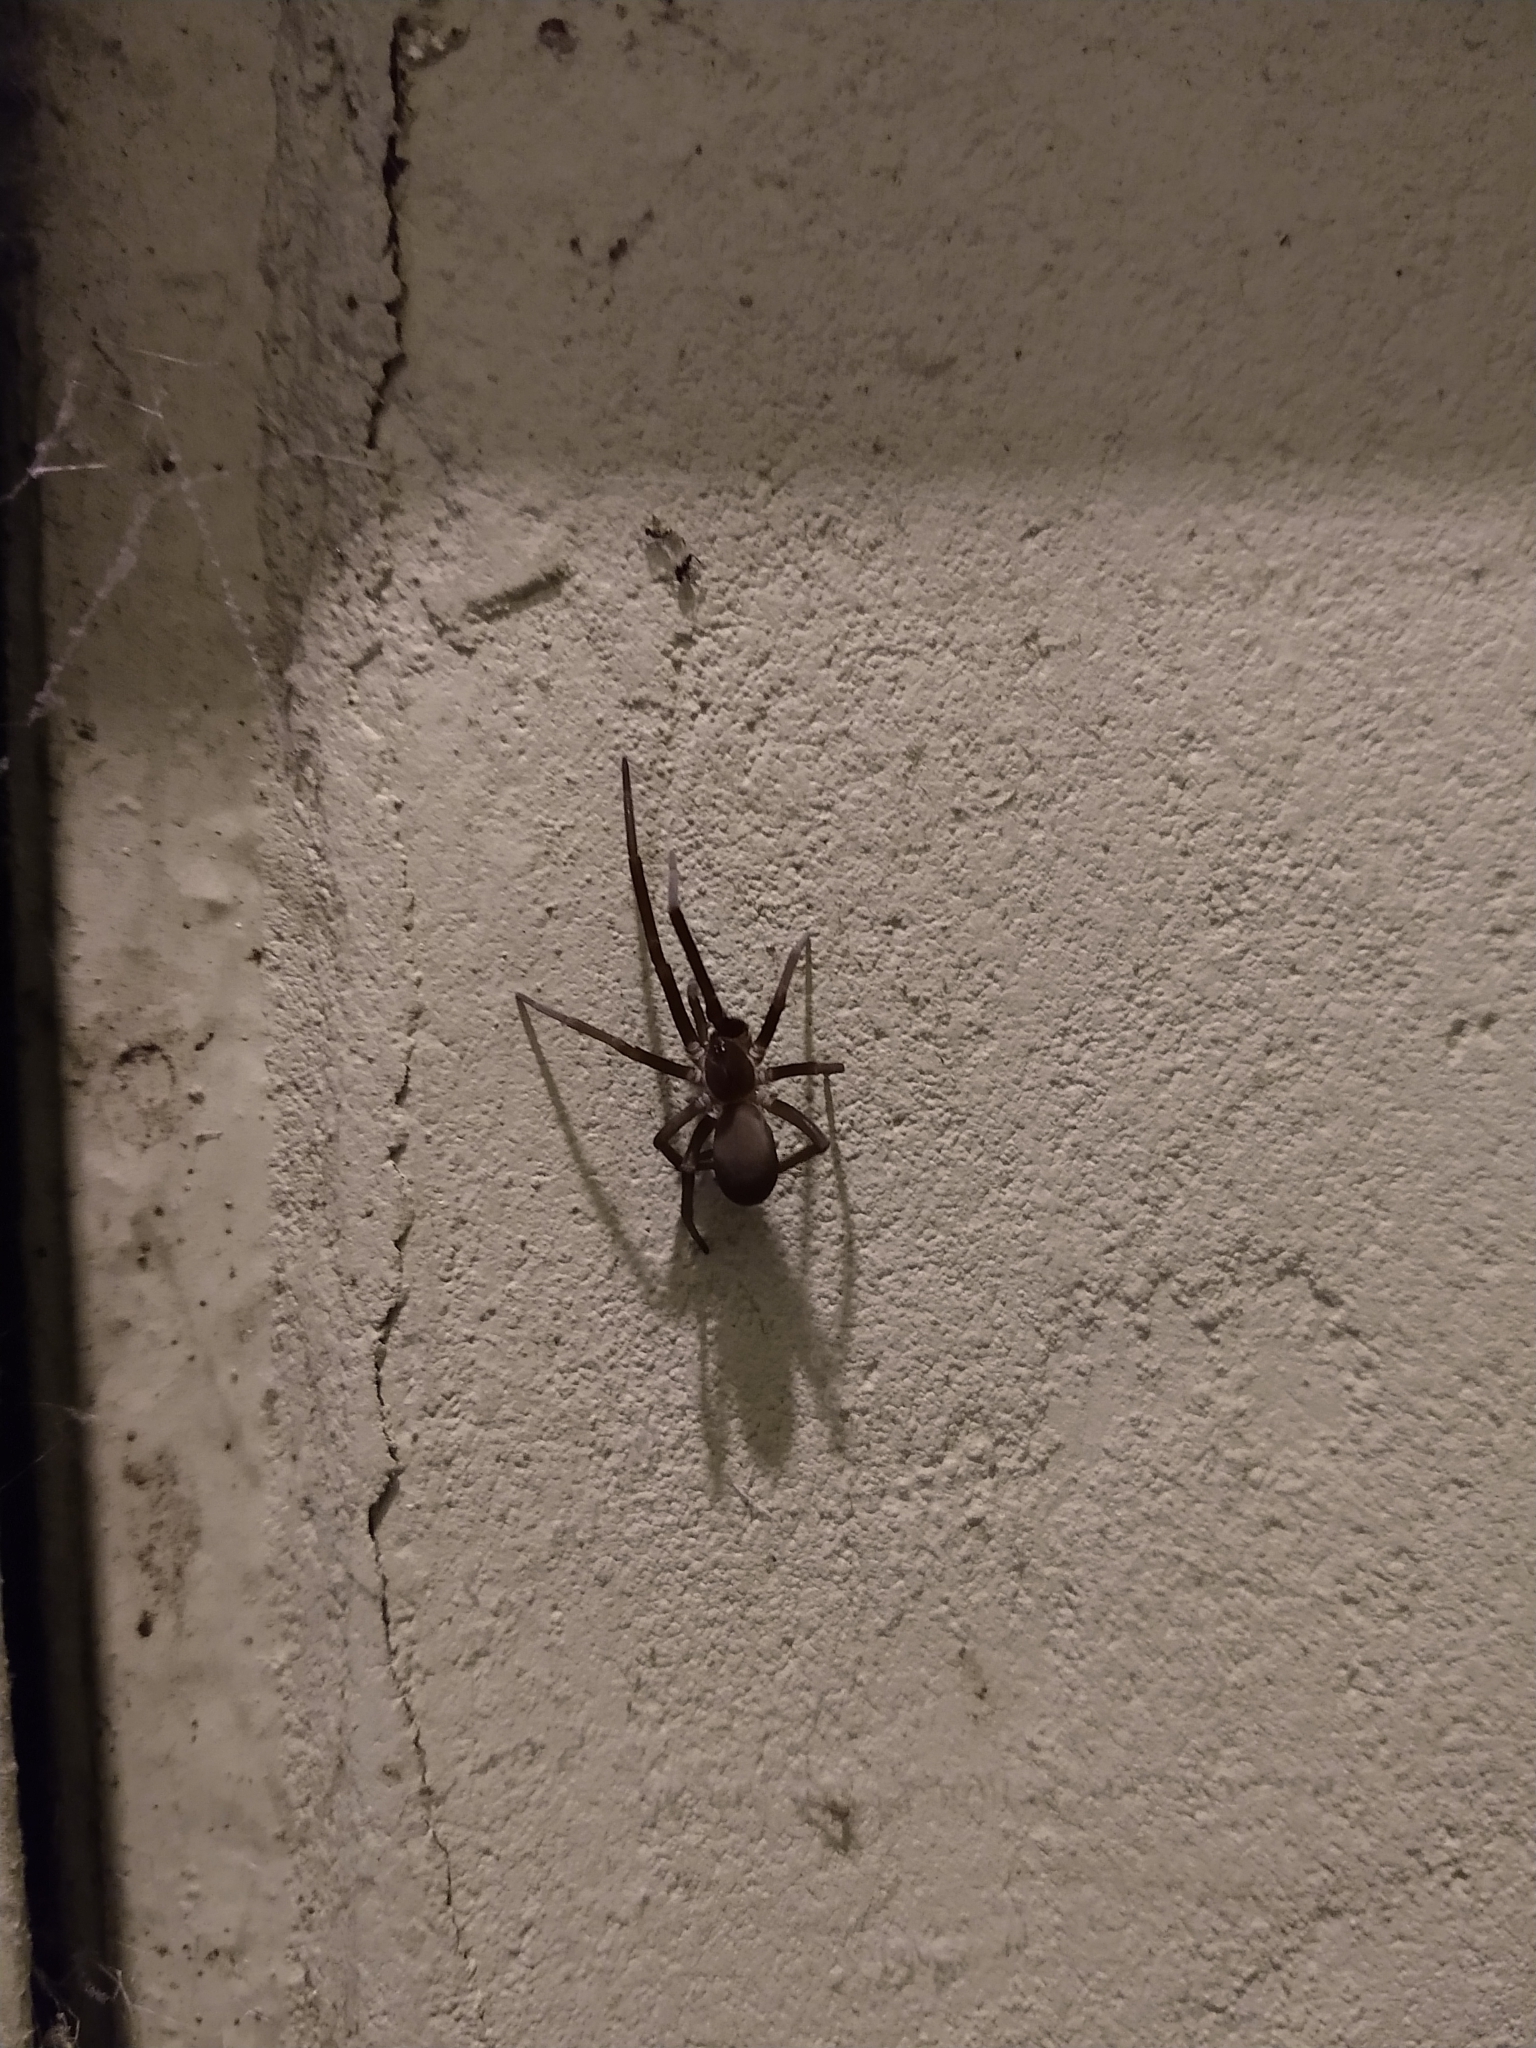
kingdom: Animalia
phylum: Arthropoda
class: Arachnida
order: Araneae
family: Filistatidae
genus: Kukulcania
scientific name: Kukulcania hibernalis
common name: Crevice weaver
